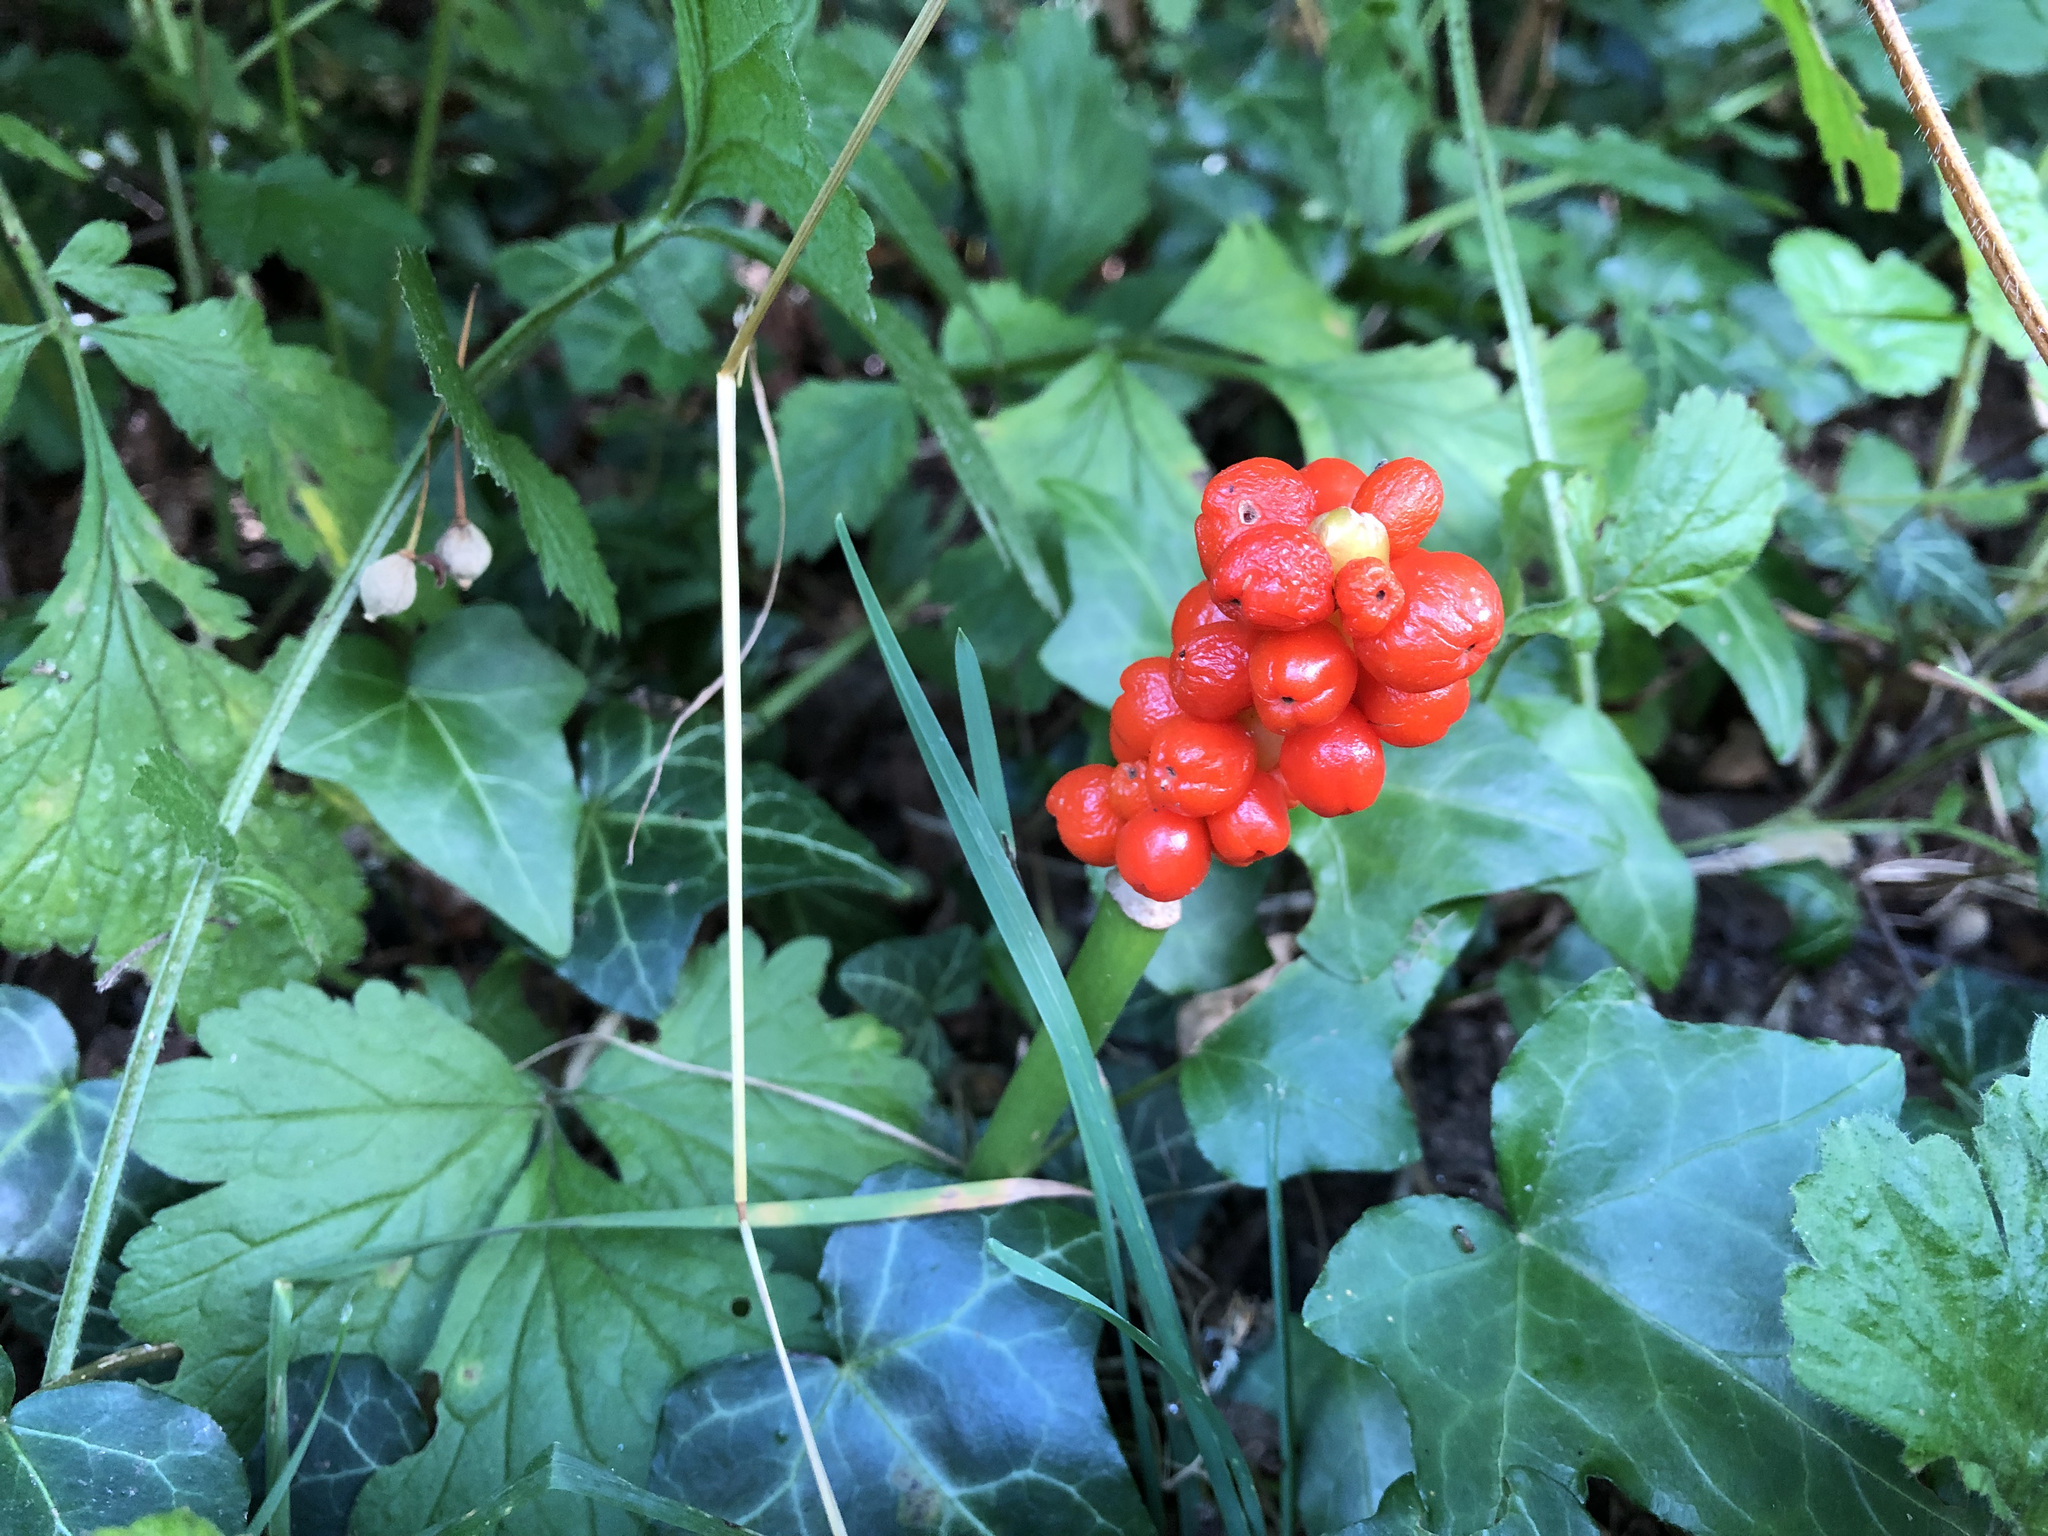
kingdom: Plantae
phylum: Tracheophyta
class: Liliopsida
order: Alismatales
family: Araceae
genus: Arum
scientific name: Arum maculatum
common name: Lords-and-ladies
